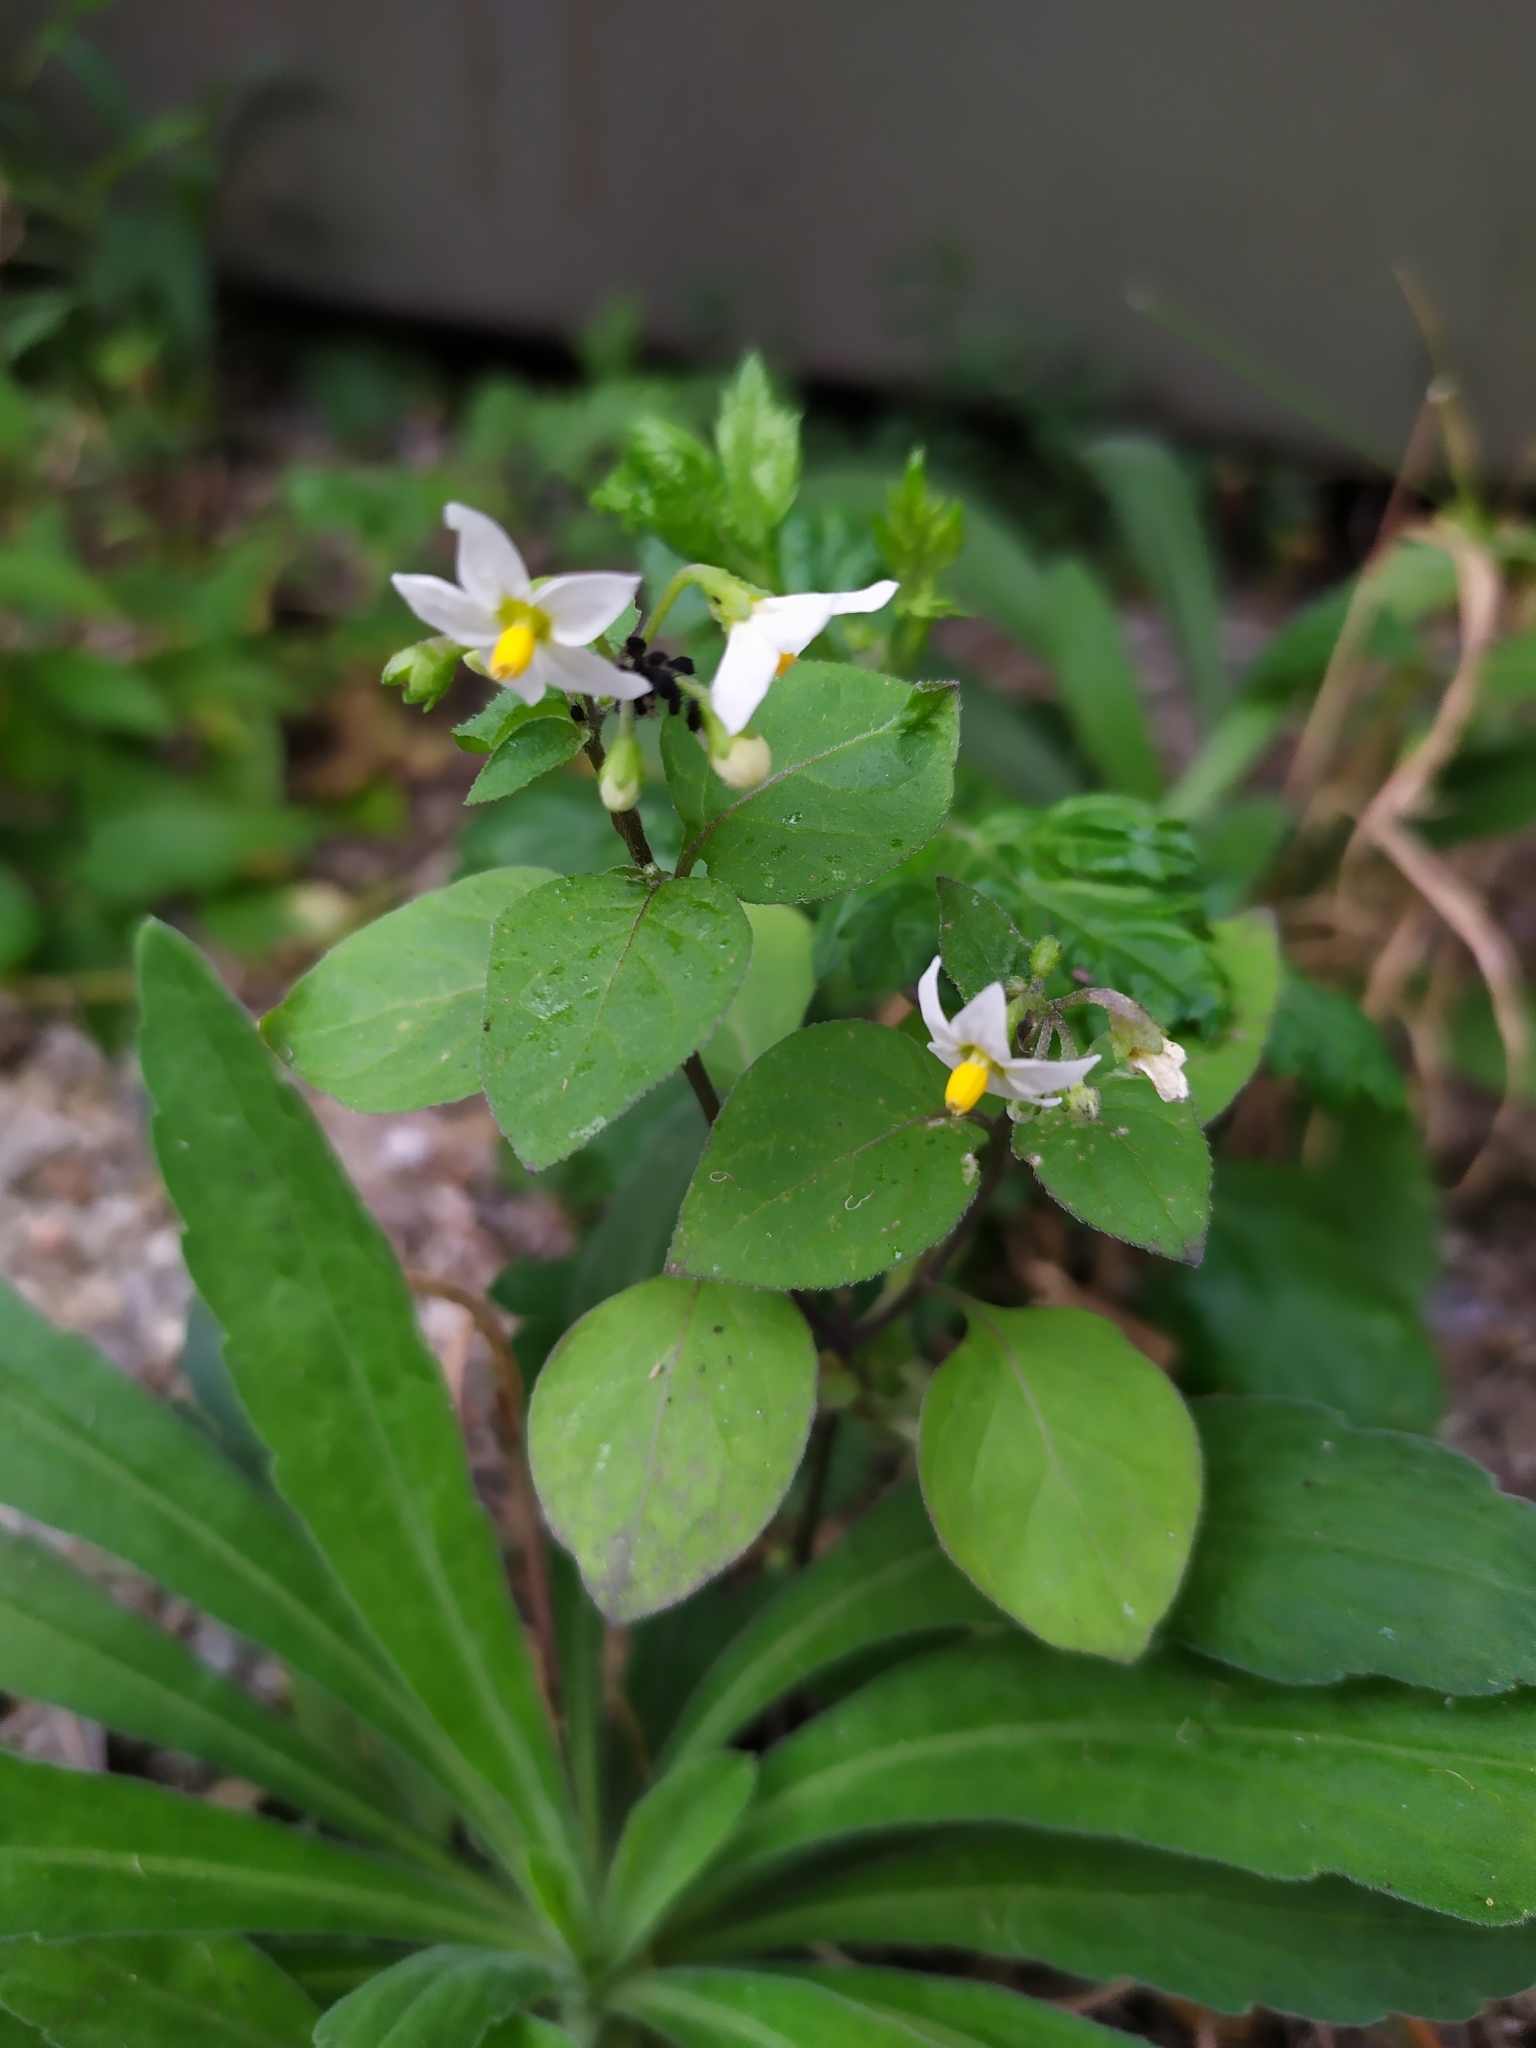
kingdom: Plantae
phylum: Tracheophyta
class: Magnoliopsida
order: Solanales
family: Solanaceae
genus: Solanum
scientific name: Solanum nigrum
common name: Black nightshade
